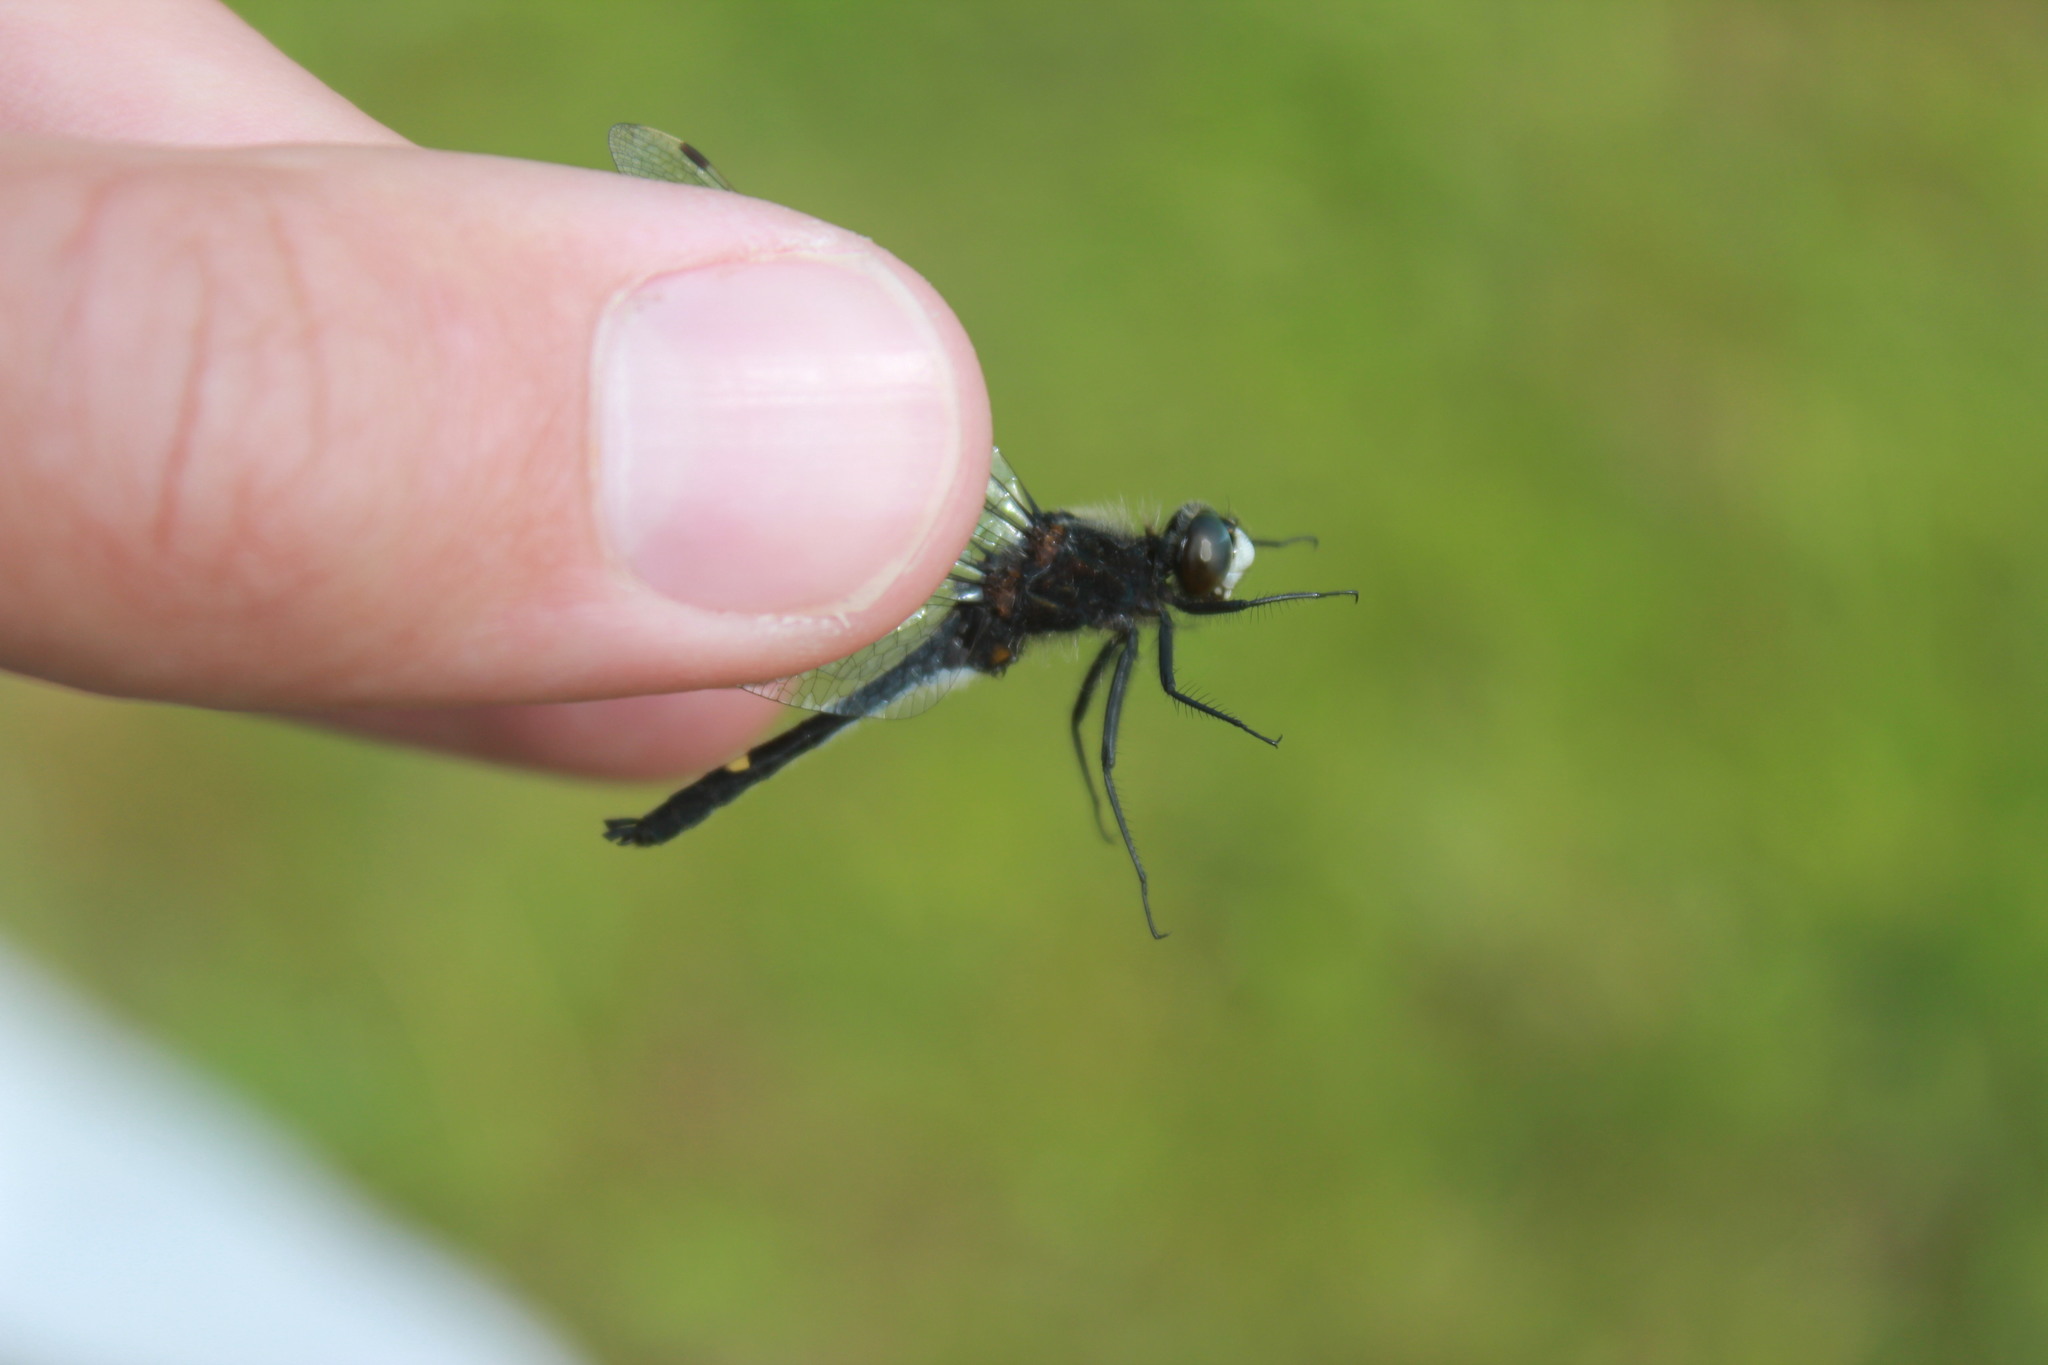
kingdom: Animalia
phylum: Arthropoda
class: Insecta
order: Odonata
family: Libellulidae
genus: Leucorrhinia
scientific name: Leucorrhinia intacta
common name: Dot-tailed whiteface
